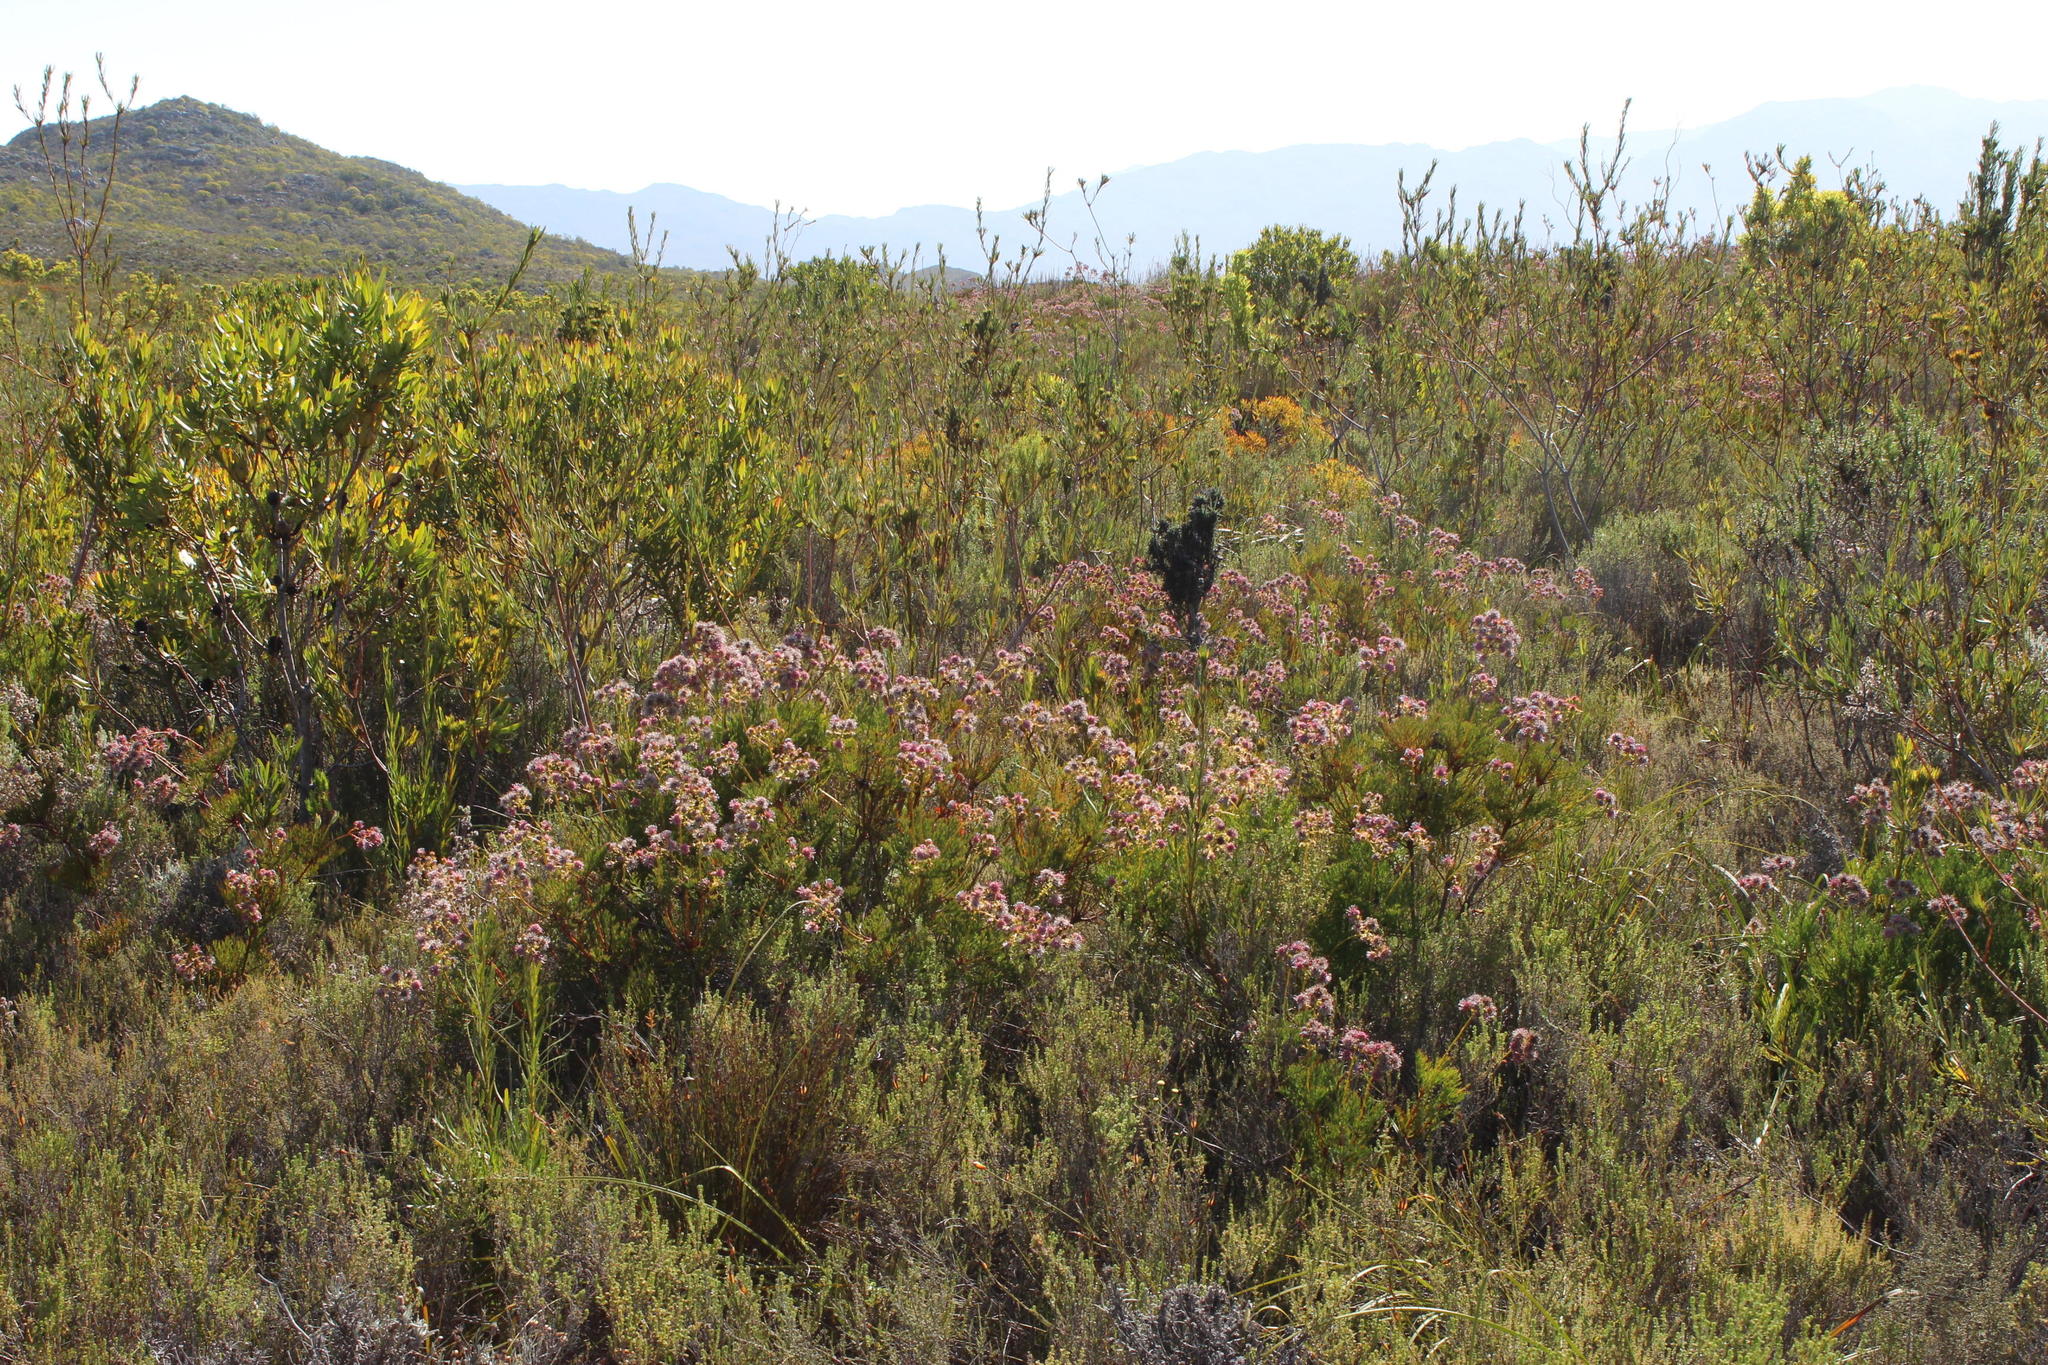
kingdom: Plantae
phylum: Tracheophyta
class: Magnoliopsida
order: Proteales
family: Proteaceae
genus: Serruria
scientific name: Serruria elongata
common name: Long-stalk spiderhead
